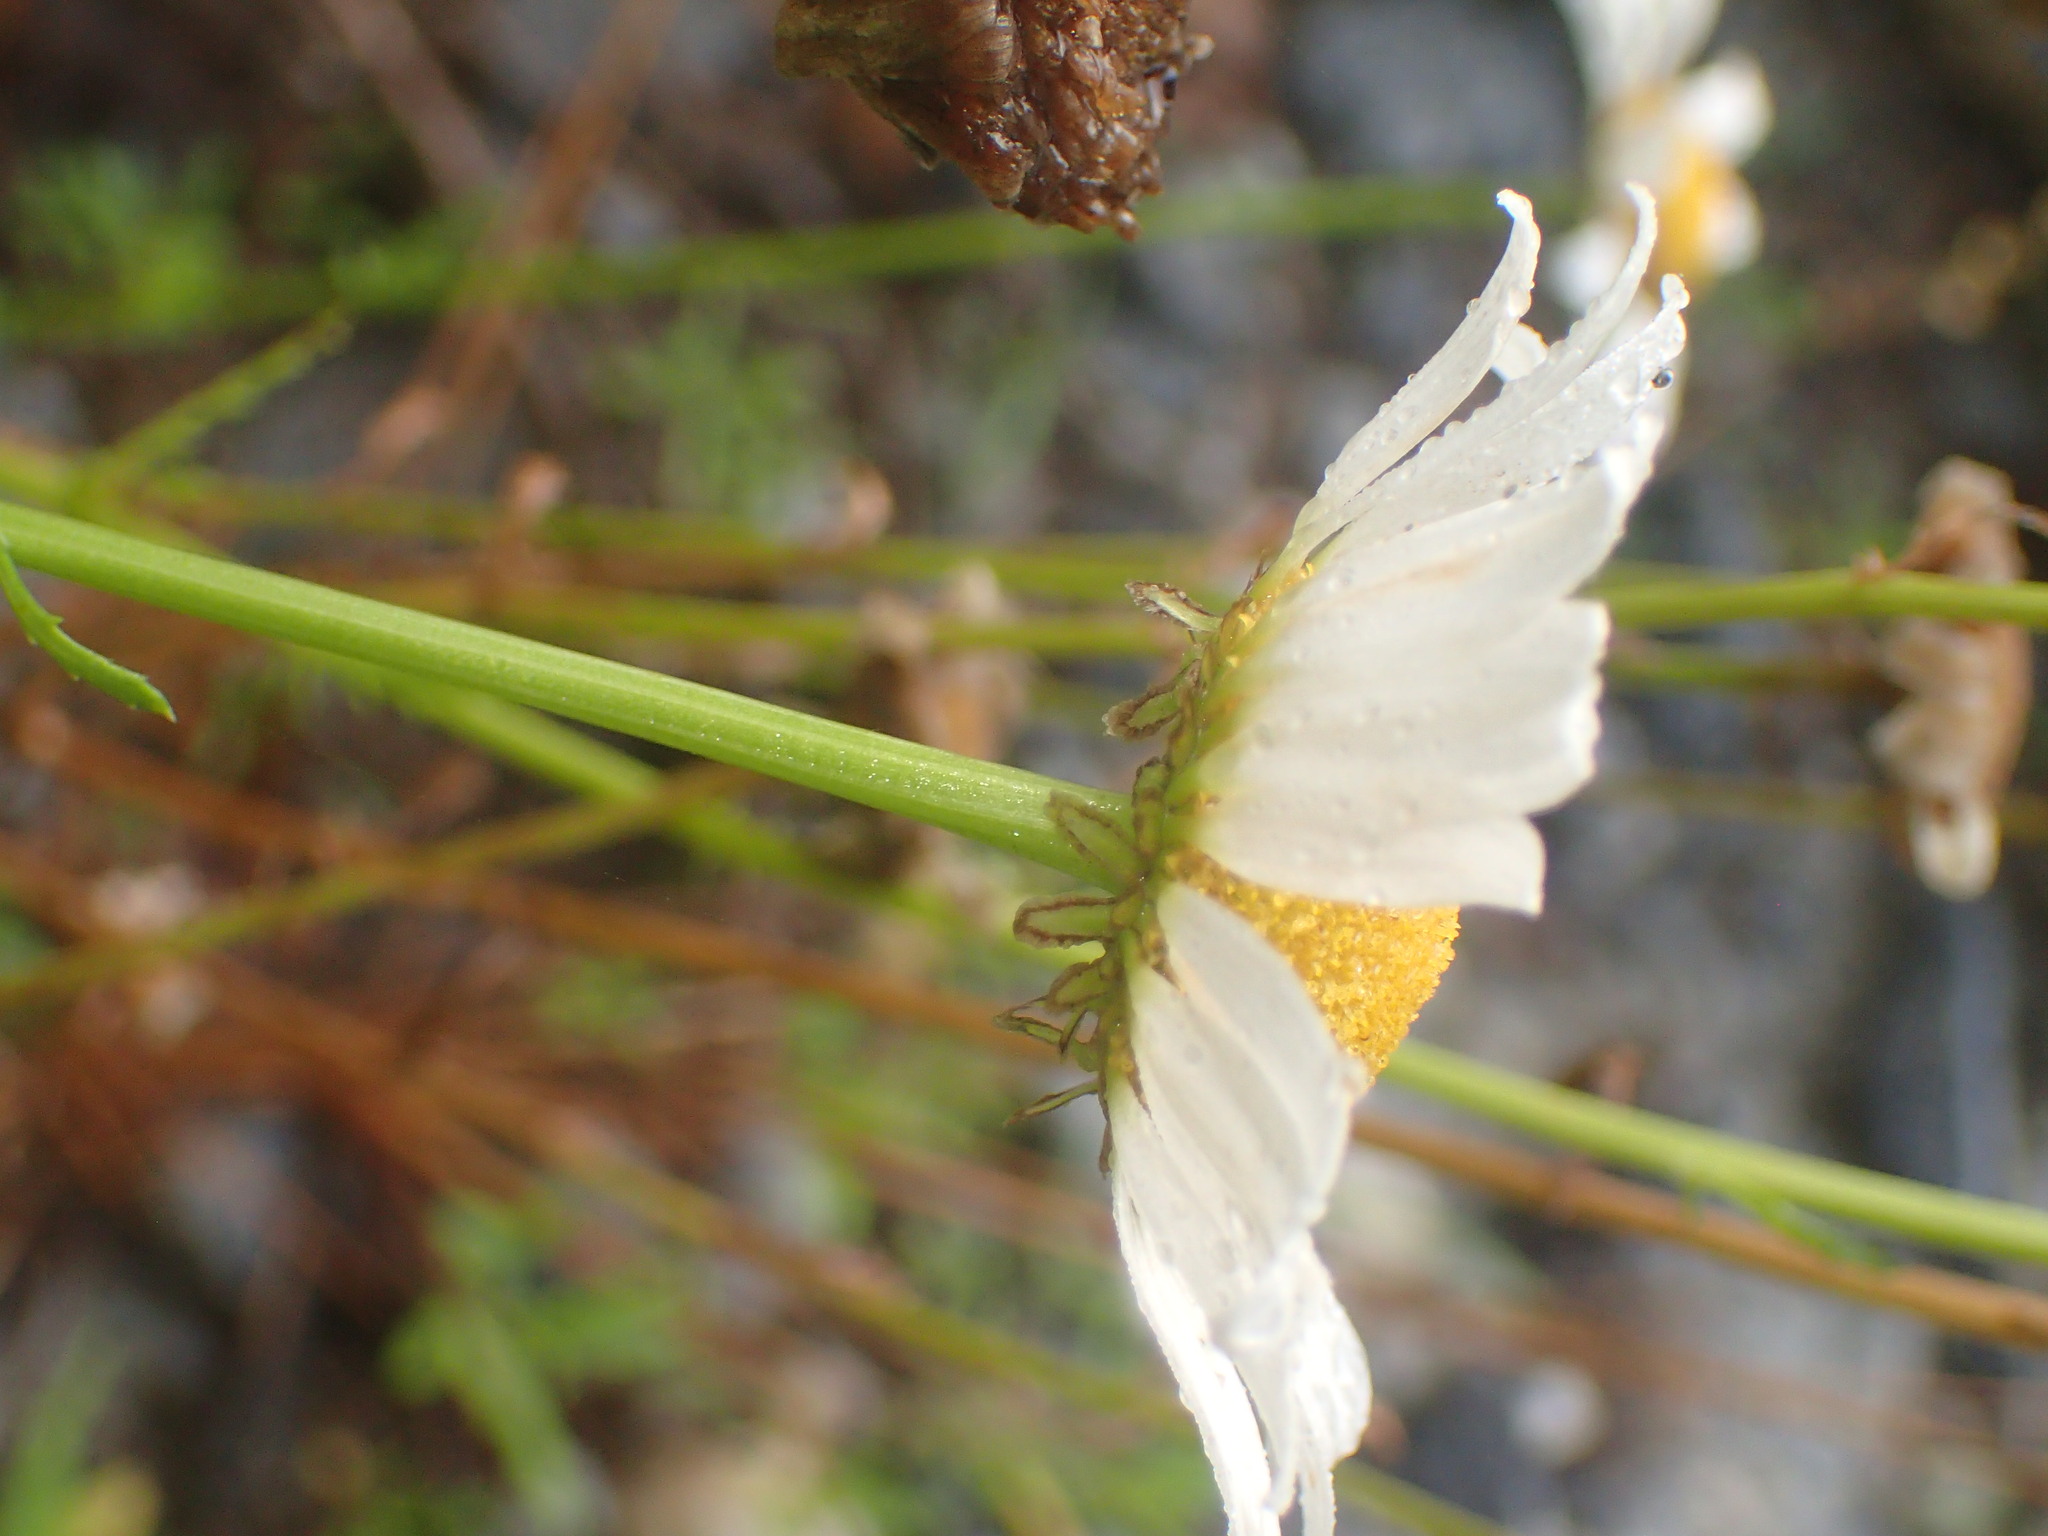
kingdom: Plantae
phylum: Tracheophyta
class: Magnoliopsida
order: Asterales
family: Asteraceae
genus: Leucanthemum
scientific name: Leucanthemum vulgare
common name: Oxeye daisy
